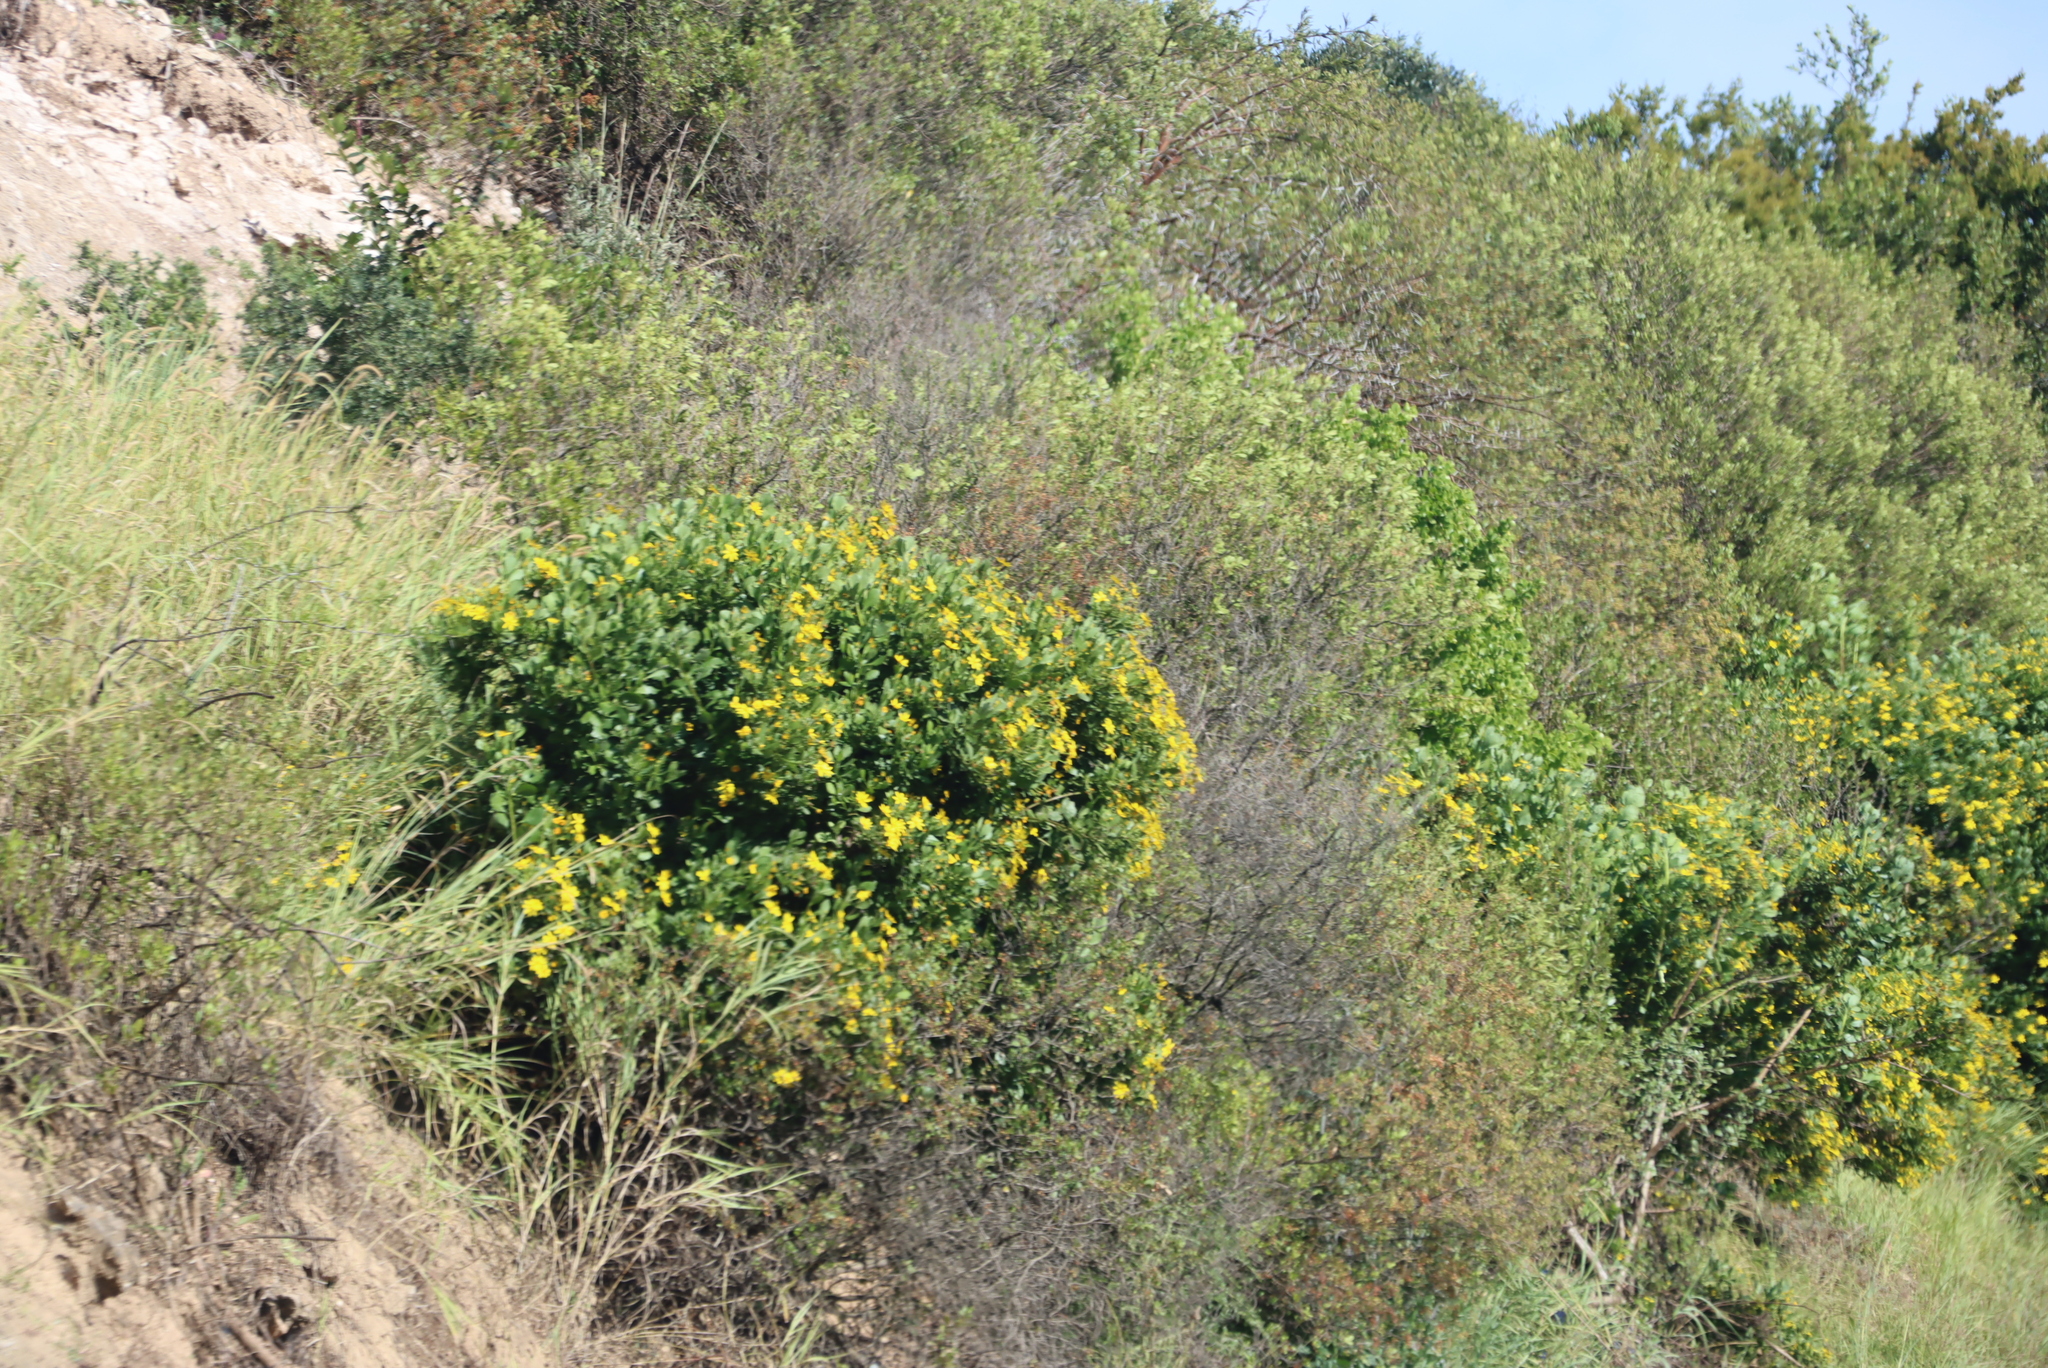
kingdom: Plantae
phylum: Tracheophyta
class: Magnoliopsida
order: Asterales
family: Asteraceae
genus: Osteospermum
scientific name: Osteospermum moniliferum
